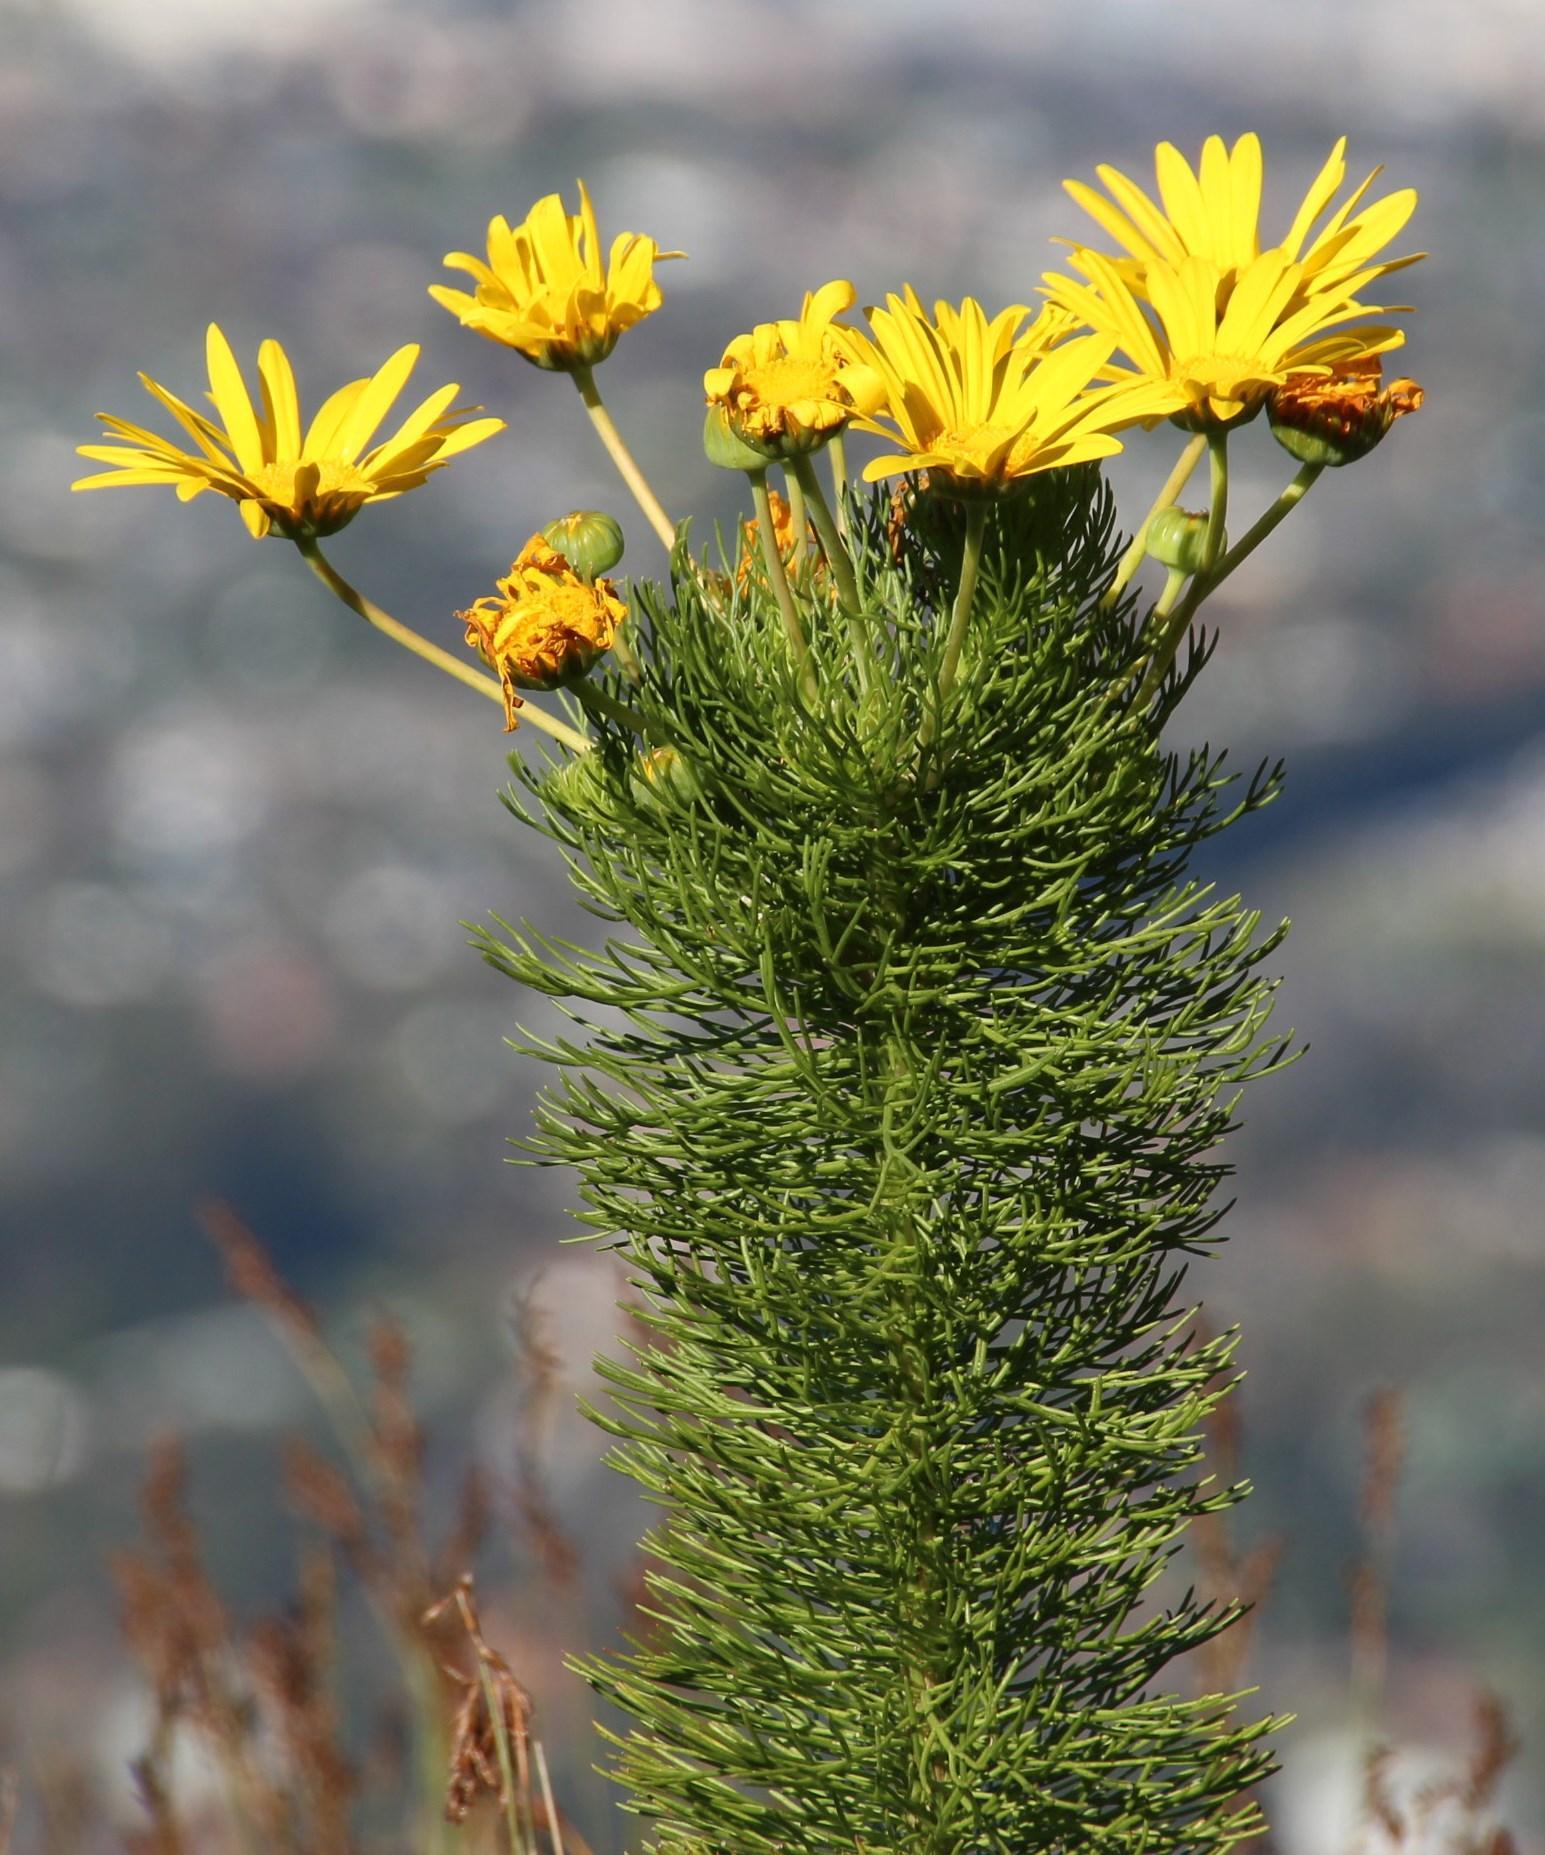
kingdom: Plantae
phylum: Tracheophyta
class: Magnoliopsida
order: Asterales
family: Asteraceae
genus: Euryops
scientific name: Euryops abrotanifolius
